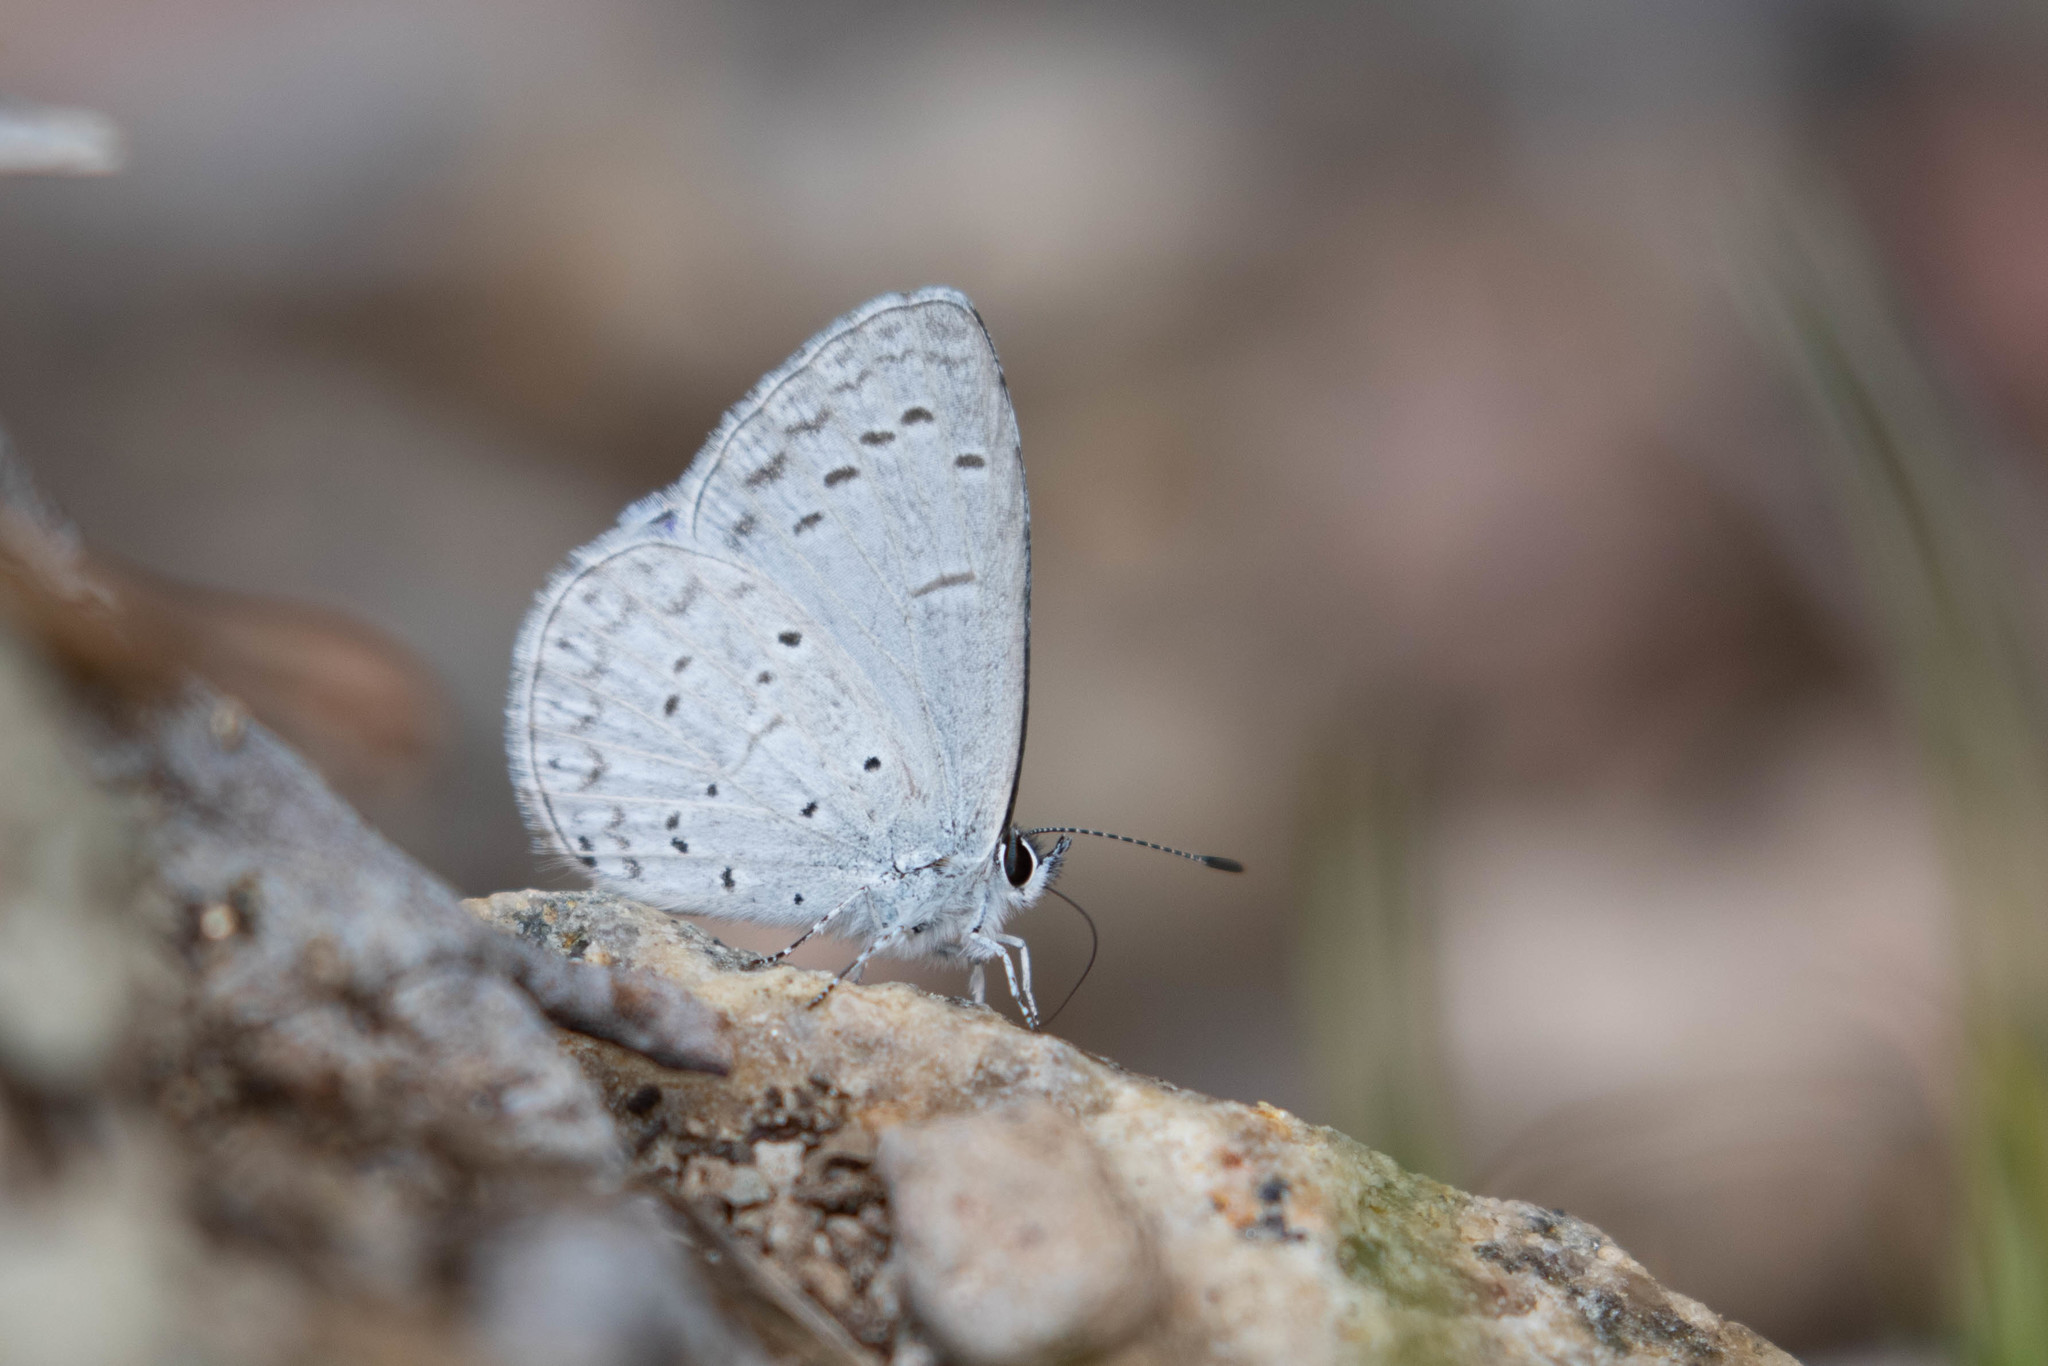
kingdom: Animalia
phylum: Arthropoda
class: Insecta
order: Lepidoptera
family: Lycaenidae
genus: Celastrina
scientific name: Celastrina ladon
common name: Spring azure
